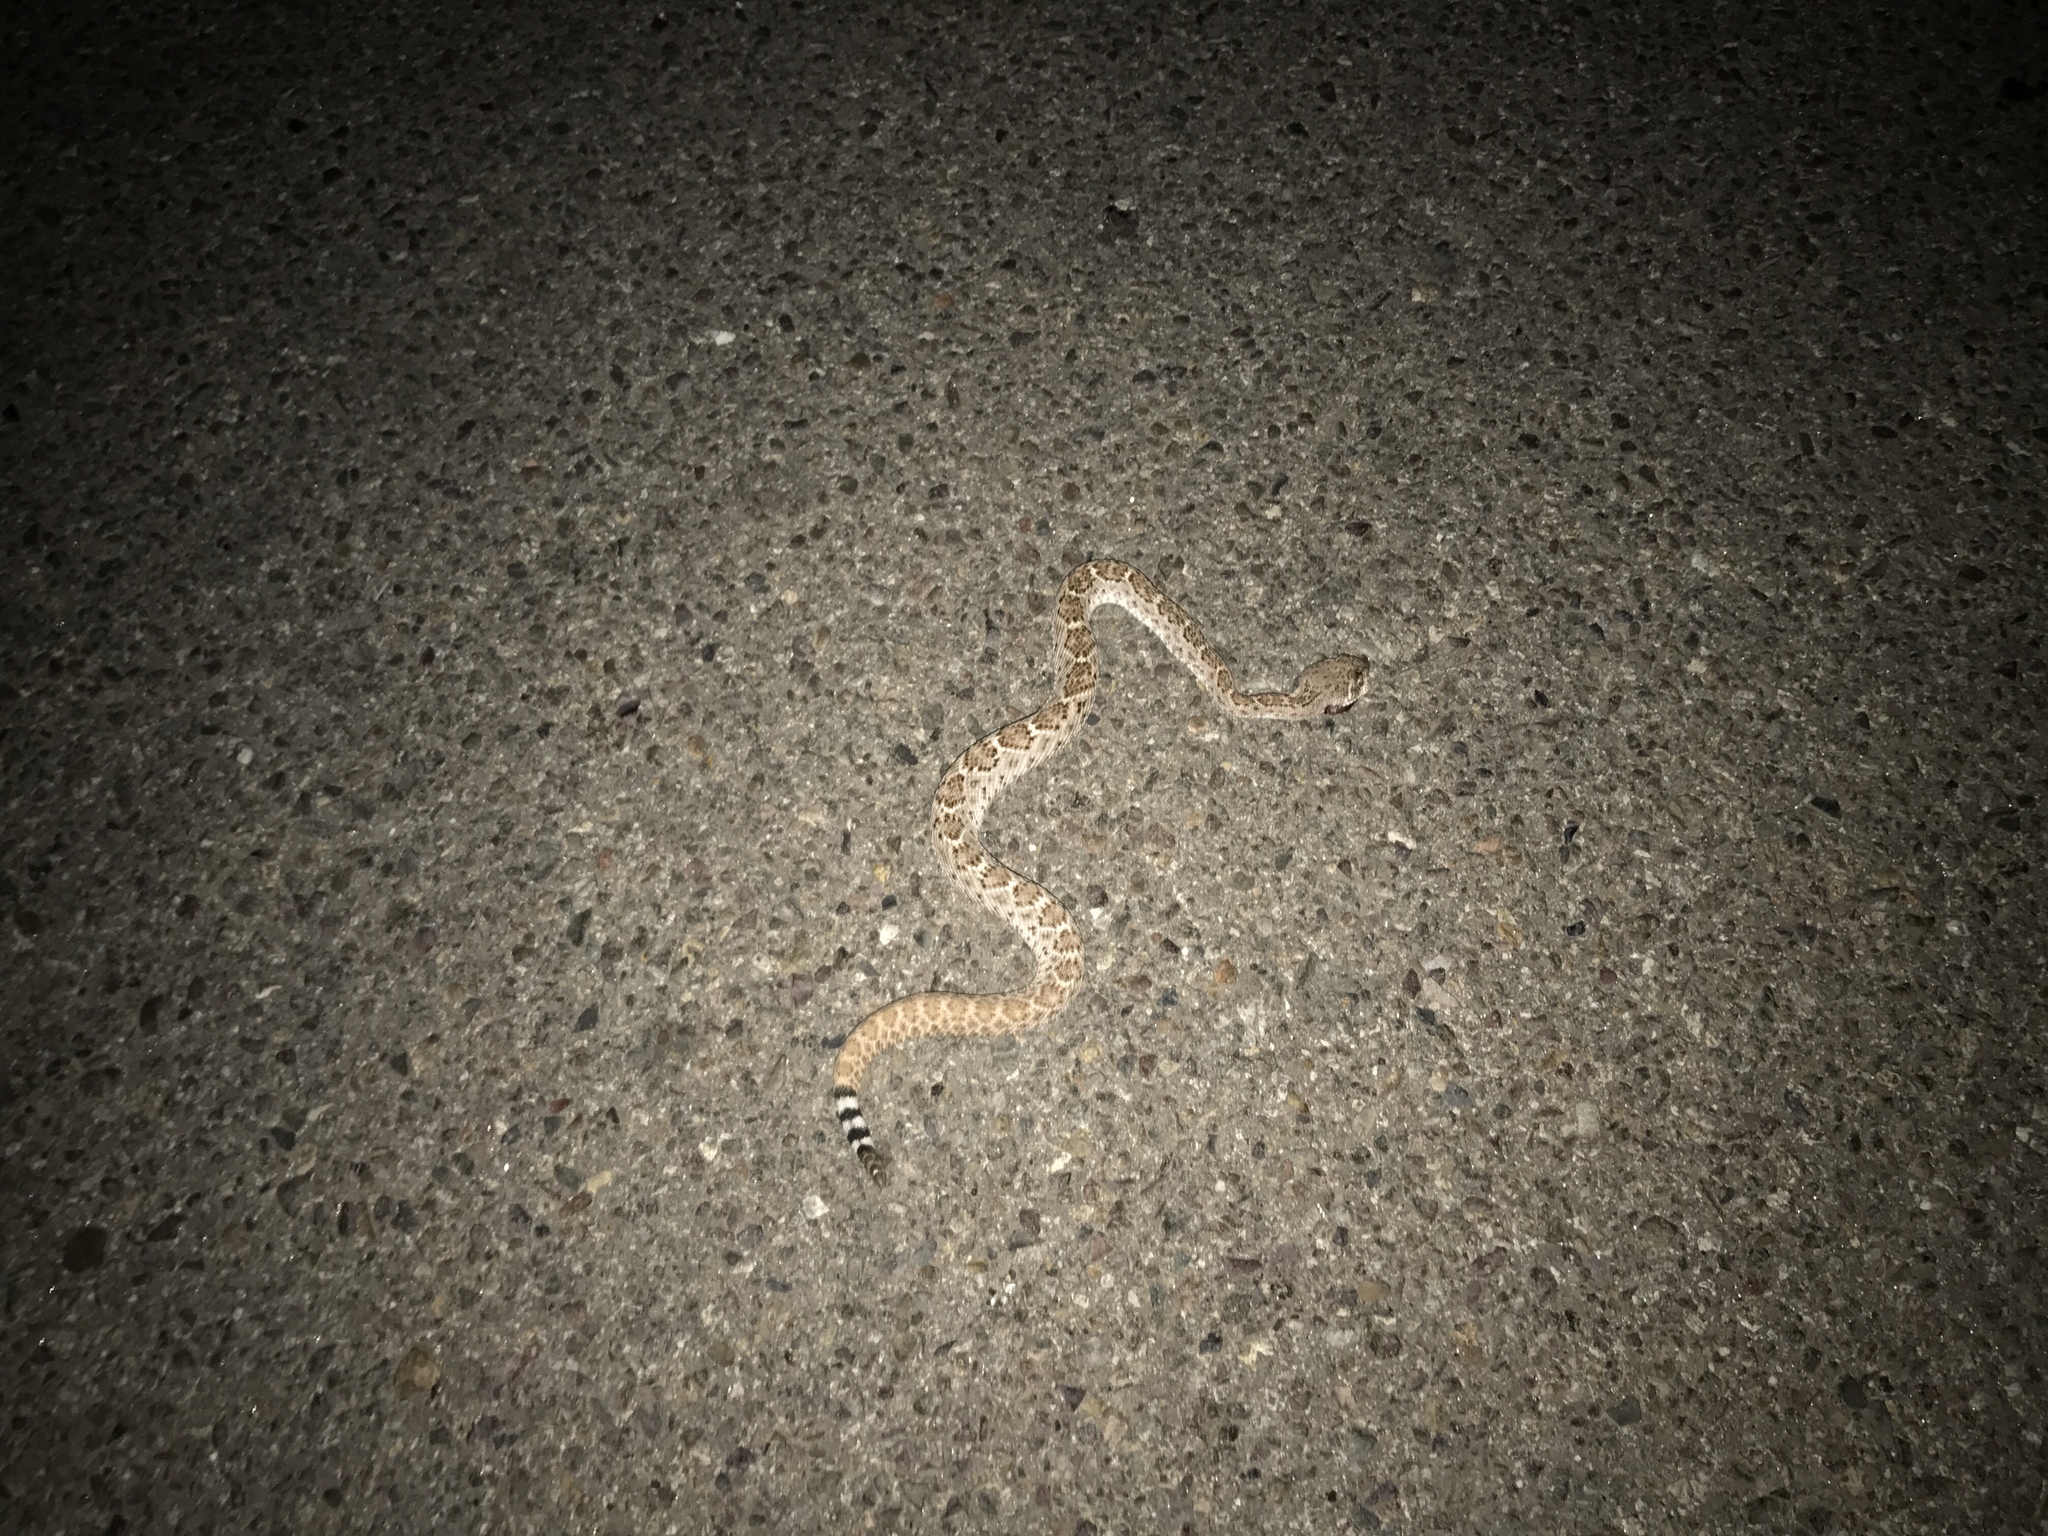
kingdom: Animalia
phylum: Chordata
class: Squamata
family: Viperidae
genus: Crotalus
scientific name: Crotalus atrox
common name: Western diamond-backed rattlesnake
